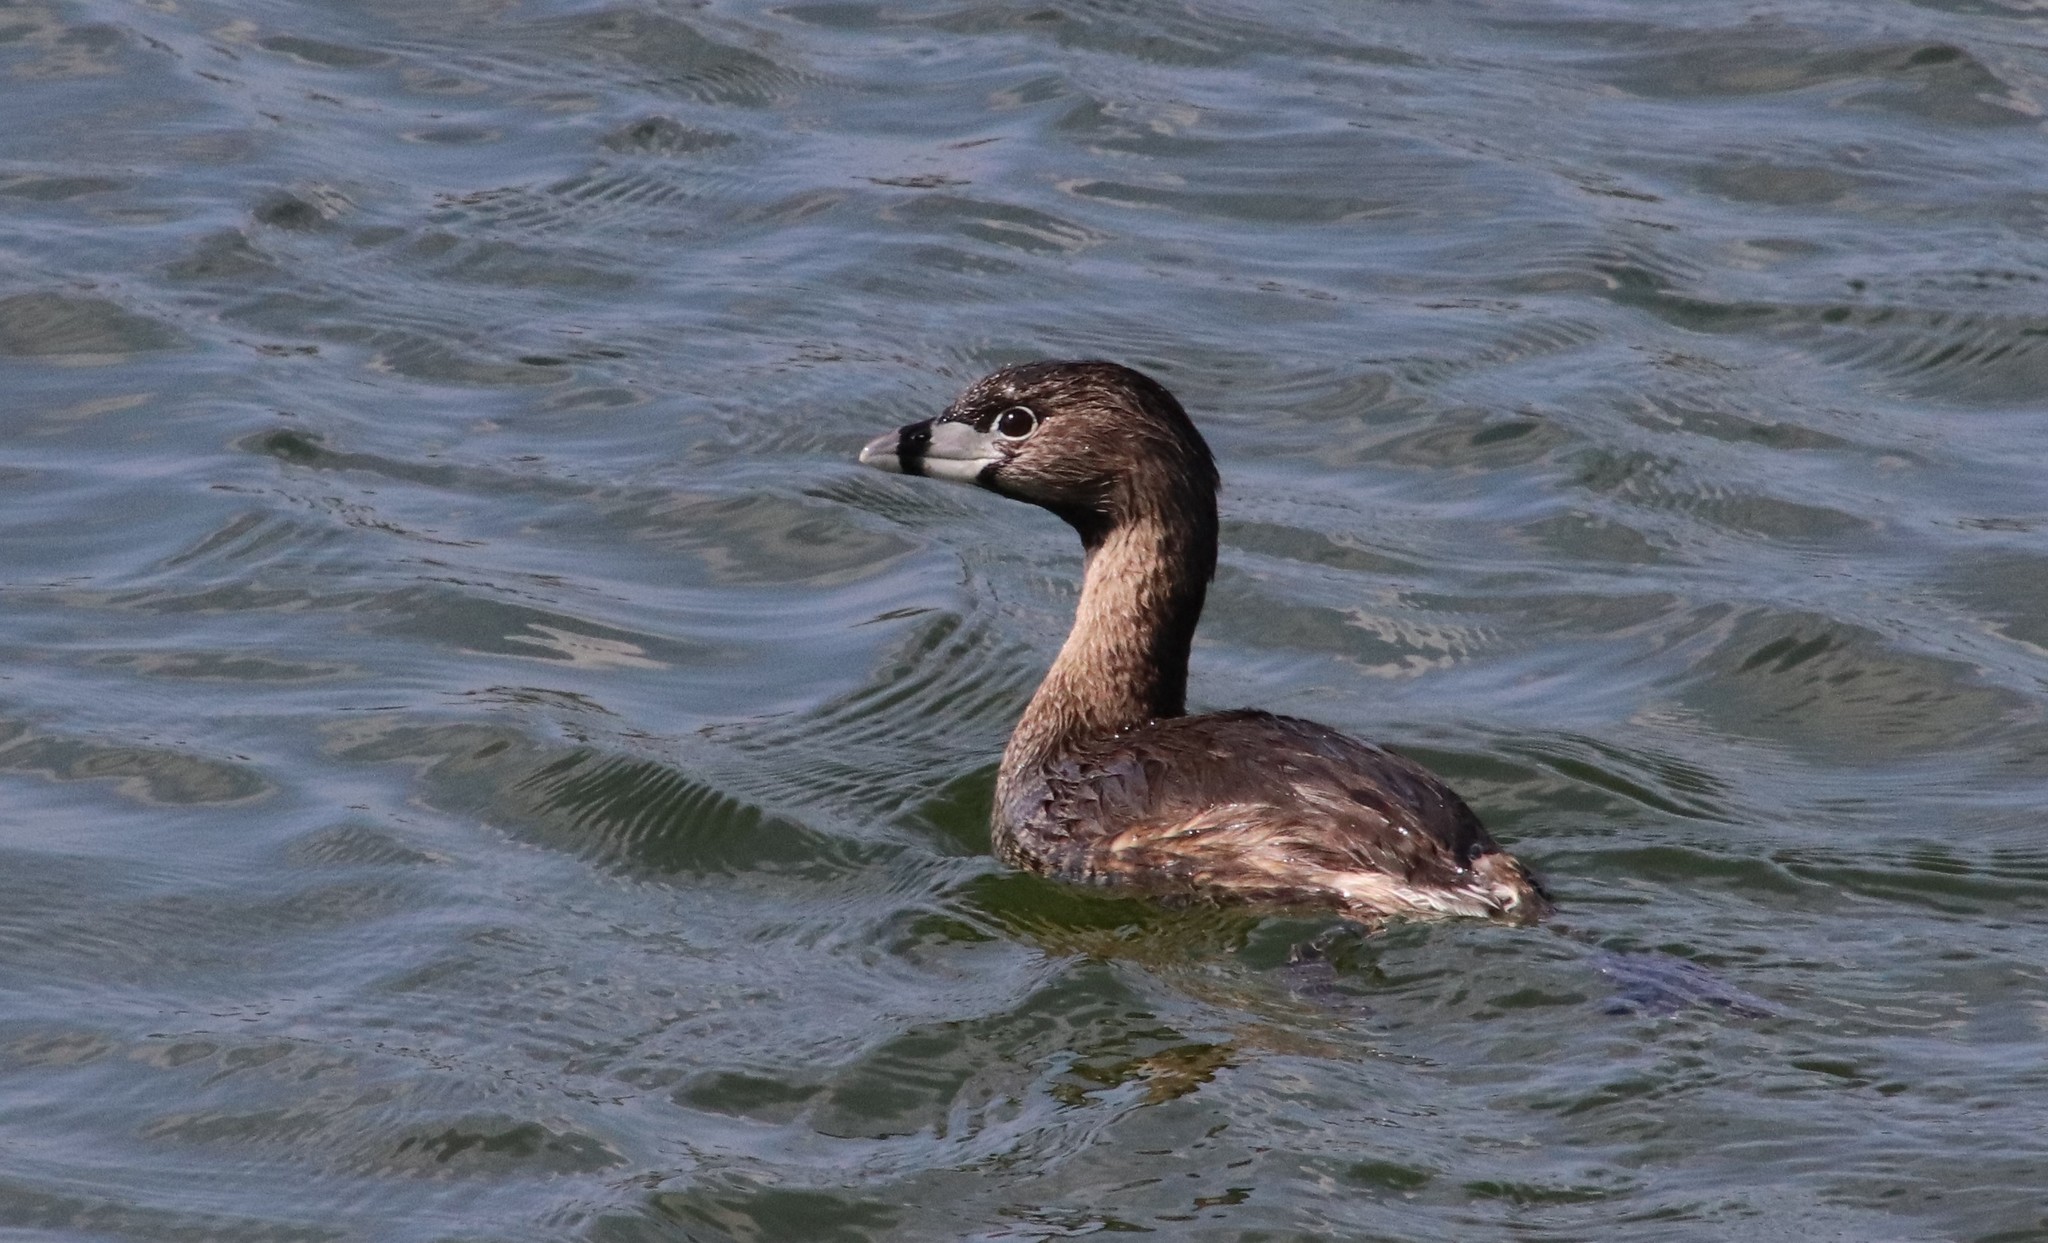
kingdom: Animalia
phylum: Chordata
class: Aves
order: Podicipediformes
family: Podicipedidae
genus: Podilymbus
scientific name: Podilymbus podiceps
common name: Pied-billed grebe
